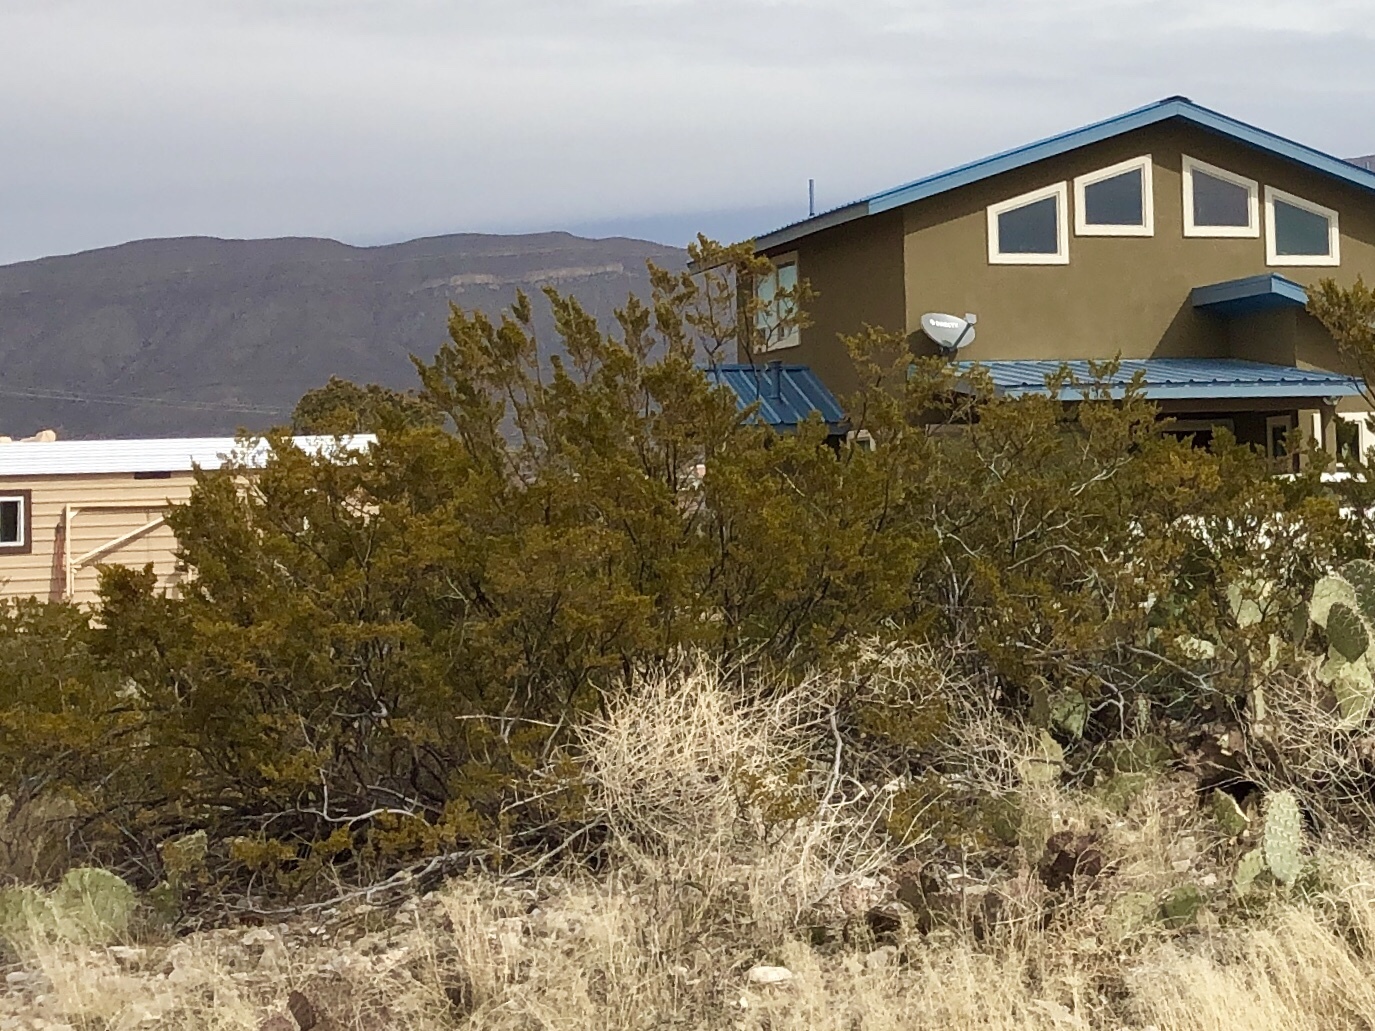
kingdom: Plantae
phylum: Tracheophyta
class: Magnoliopsida
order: Zygophyllales
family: Zygophyllaceae
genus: Larrea
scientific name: Larrea tridentata
